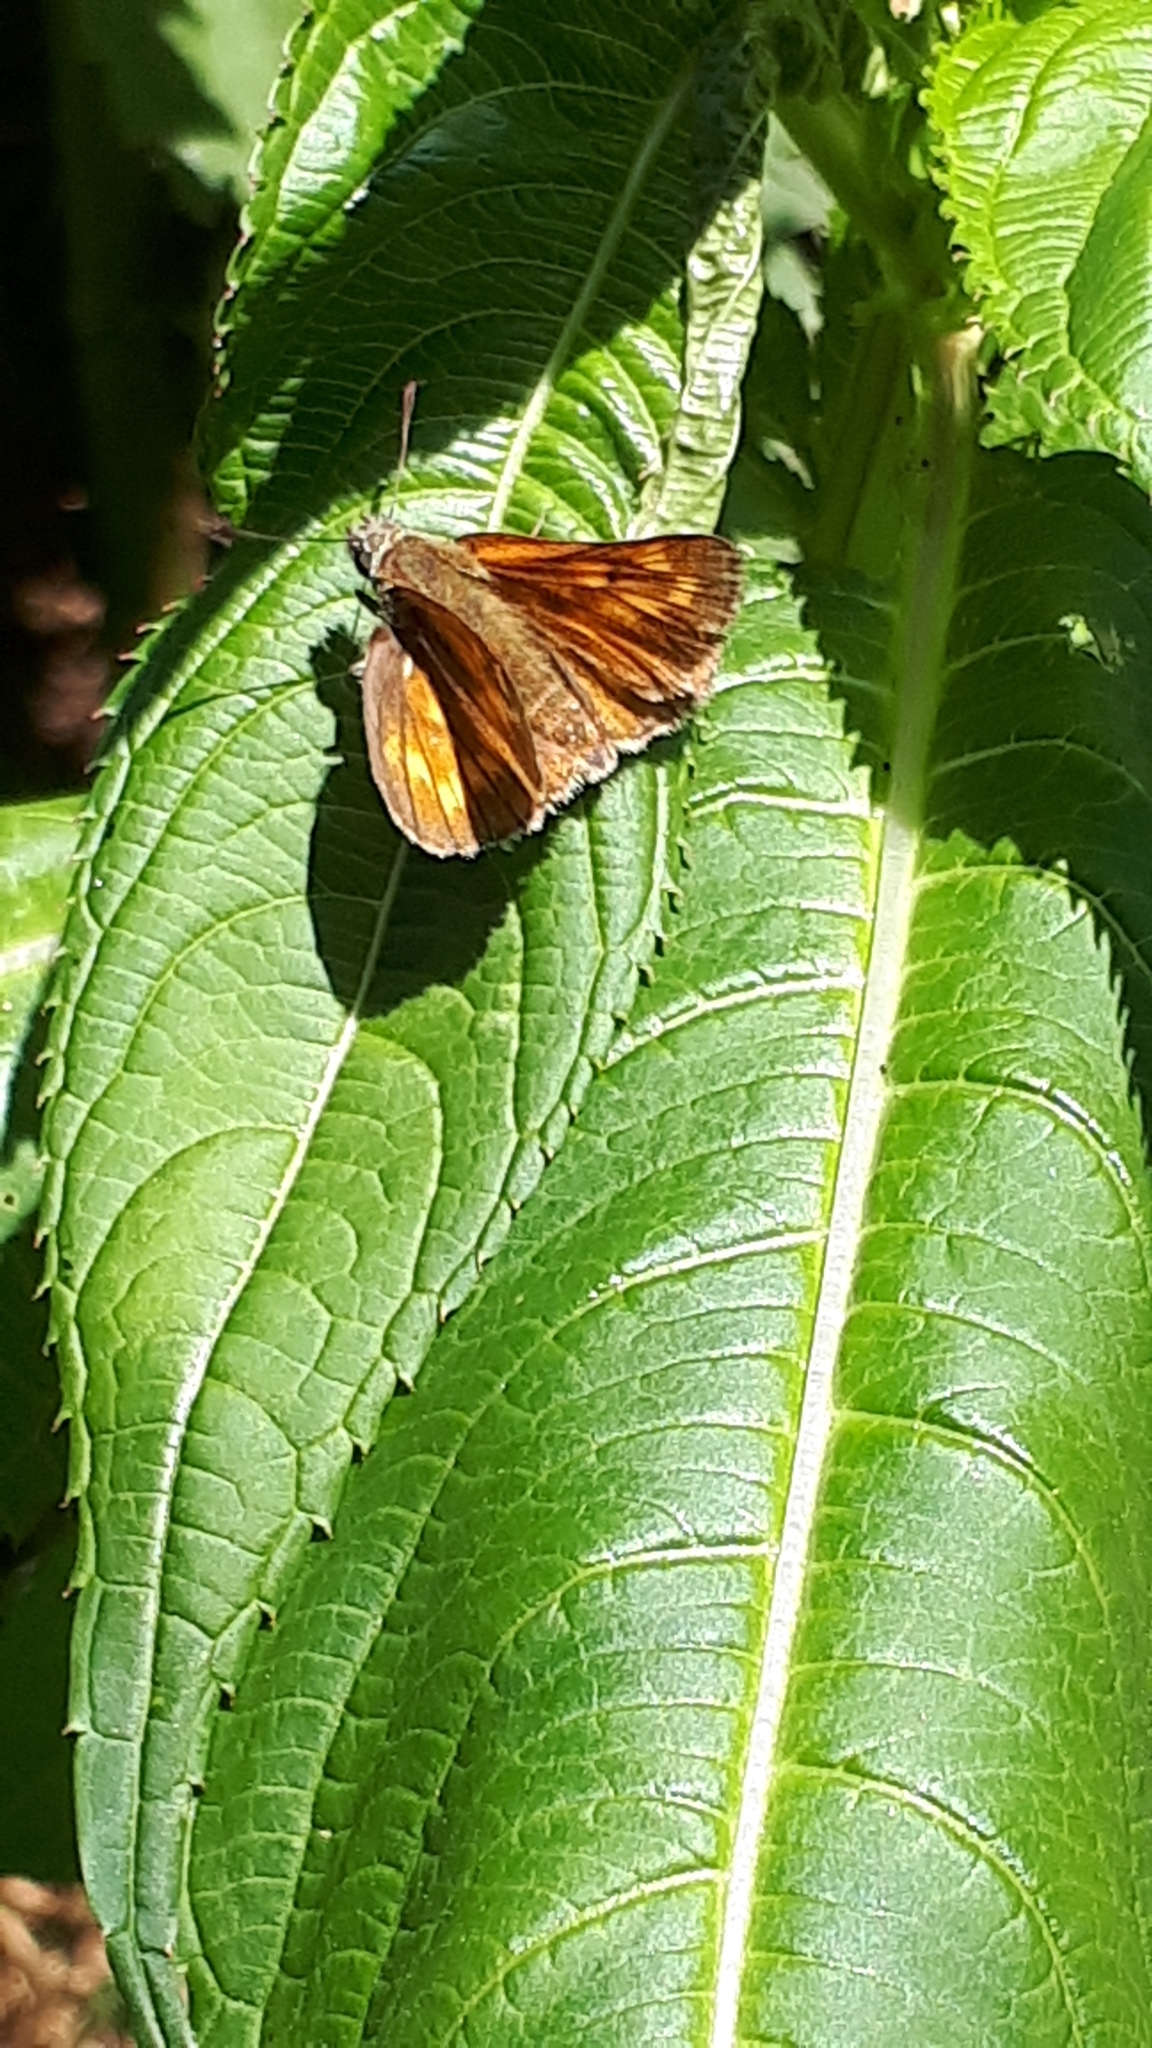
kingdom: Animalia
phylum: Arthropoda
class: Insecta
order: Lepidoptera
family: Hesperiidae
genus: Ochlodes
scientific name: Ochlodes venata
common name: Large skipper
